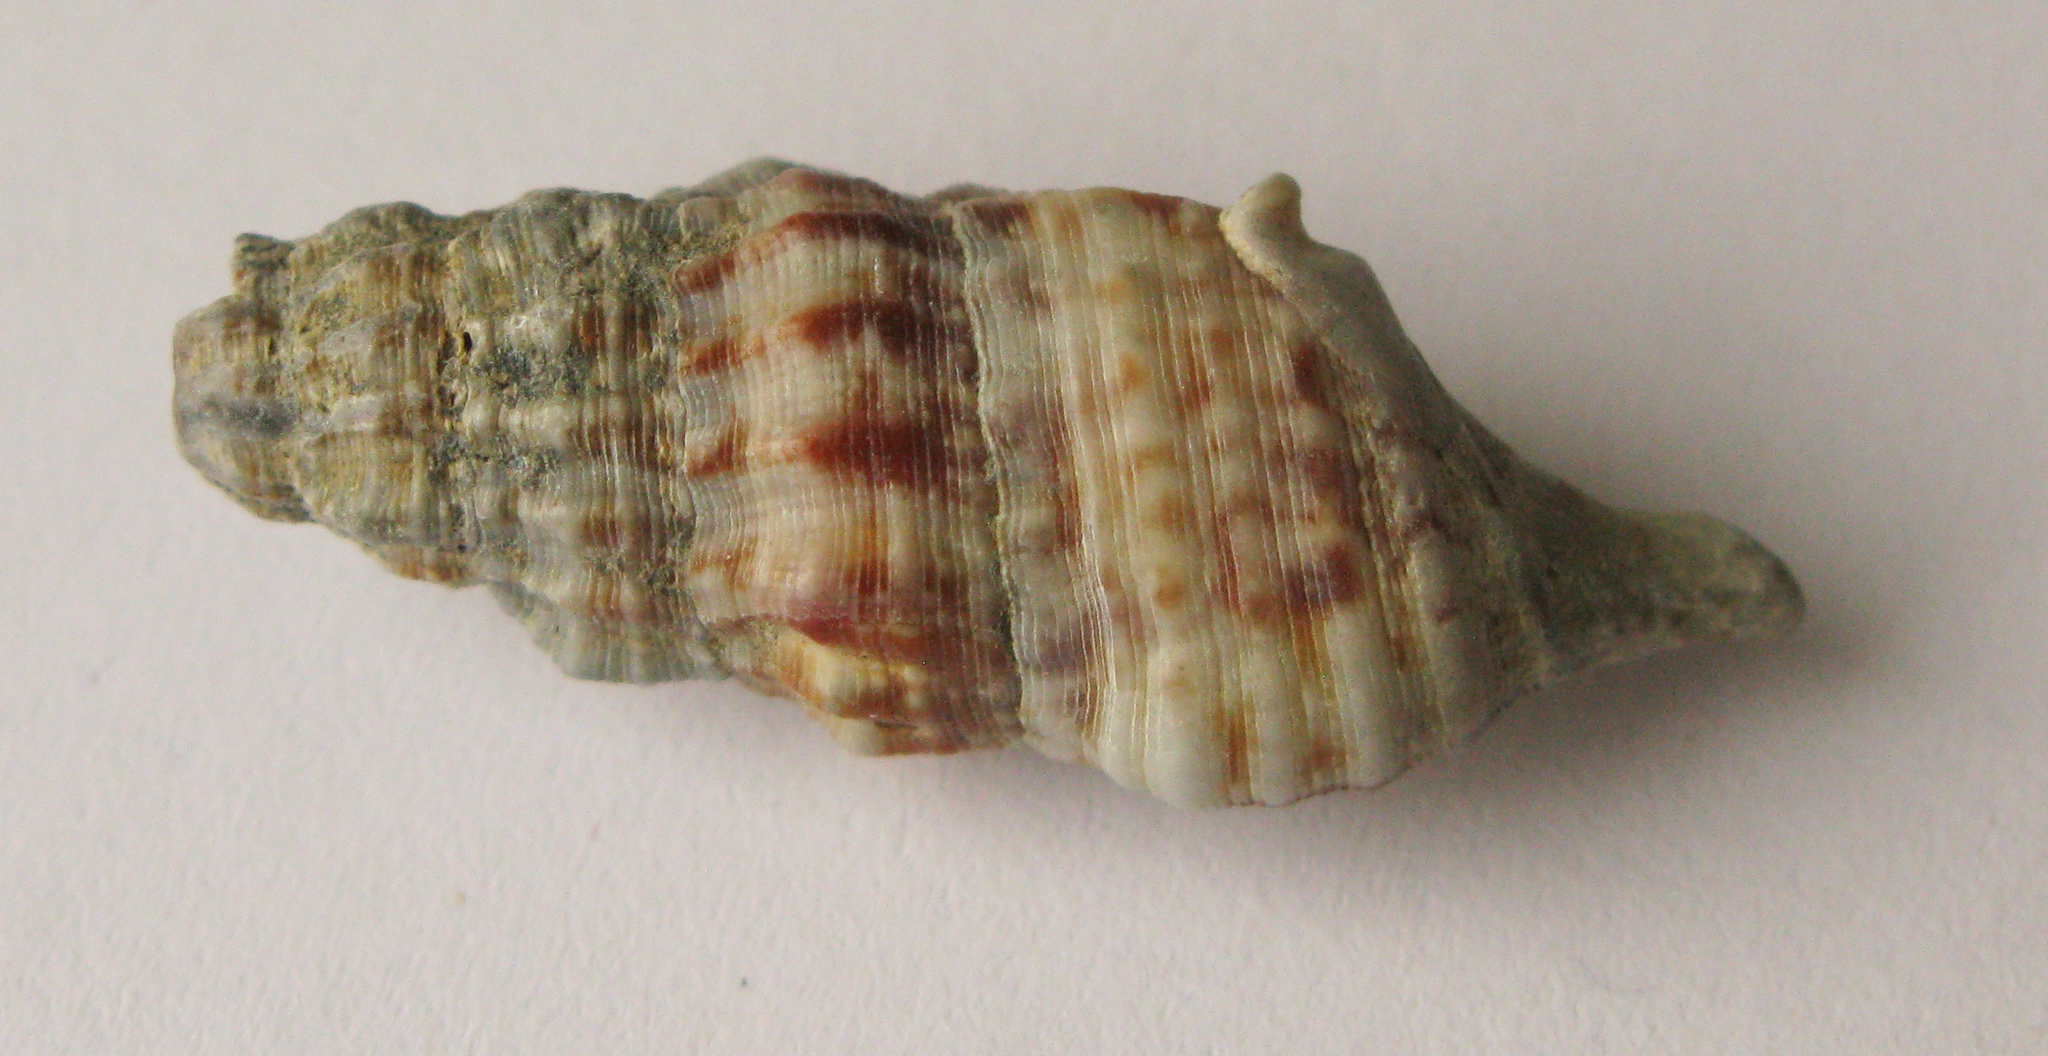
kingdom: Animalia
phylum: Mollusca
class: Gastropoda
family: Cerithiidae
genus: Cerithium
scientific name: Cerithium vulgatum
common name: European cerith
